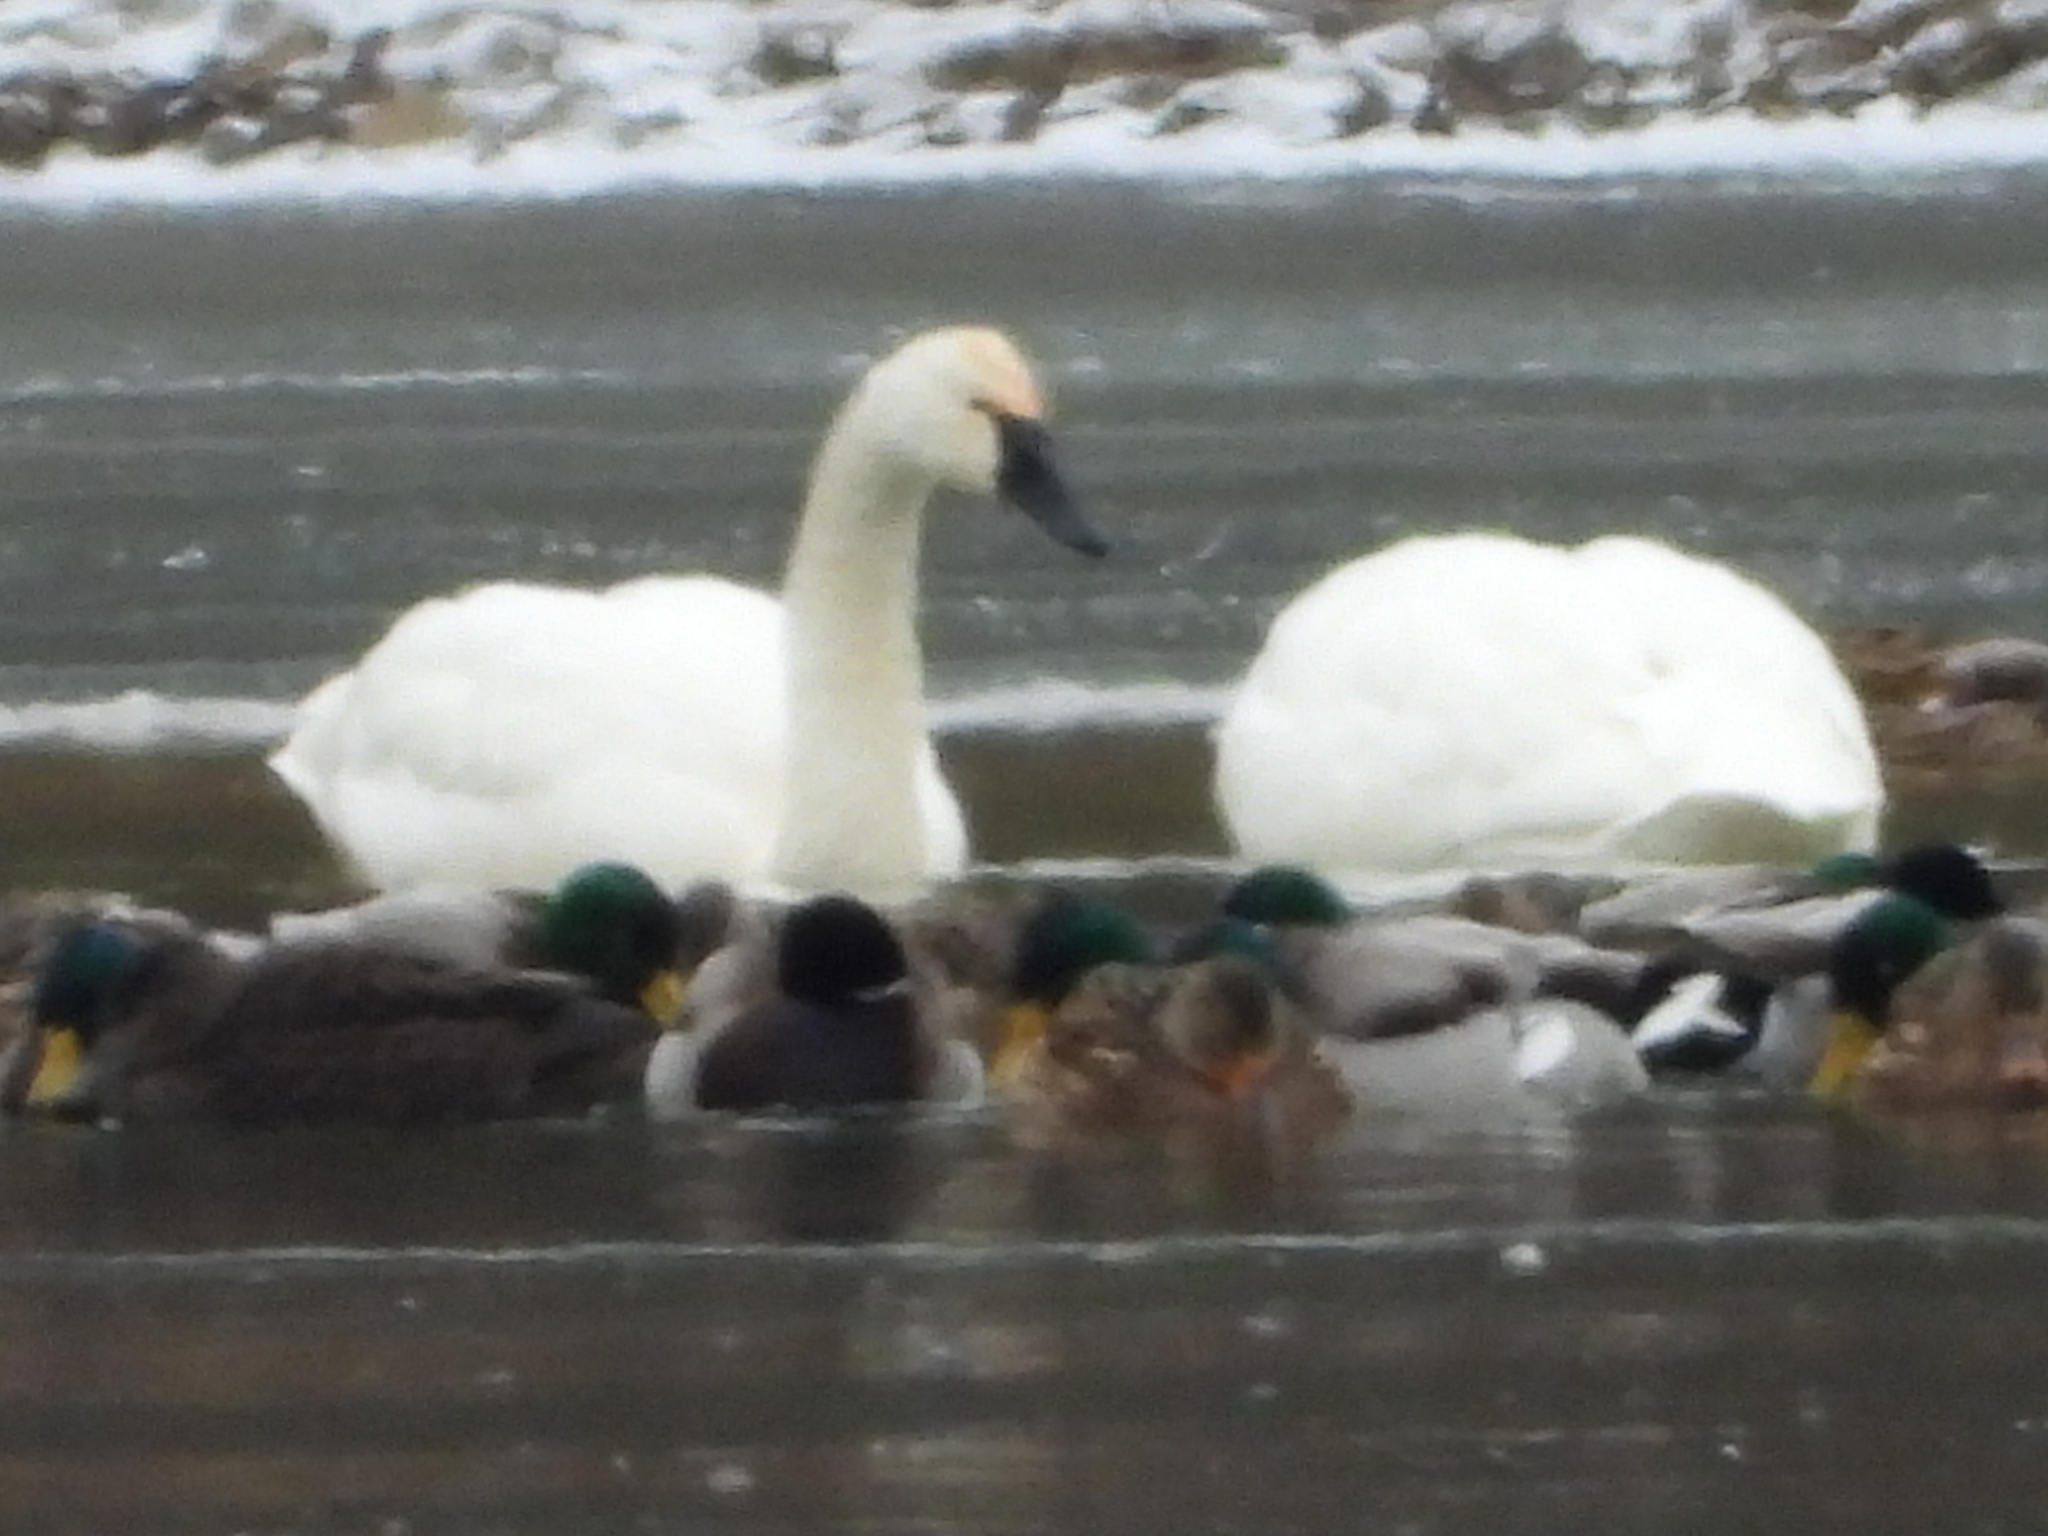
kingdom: Animalia
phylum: Chordata
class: Aves
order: Anseriformes
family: Anatidae
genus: Cygnus
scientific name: Cygnus columbianus
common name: Tundra swan
